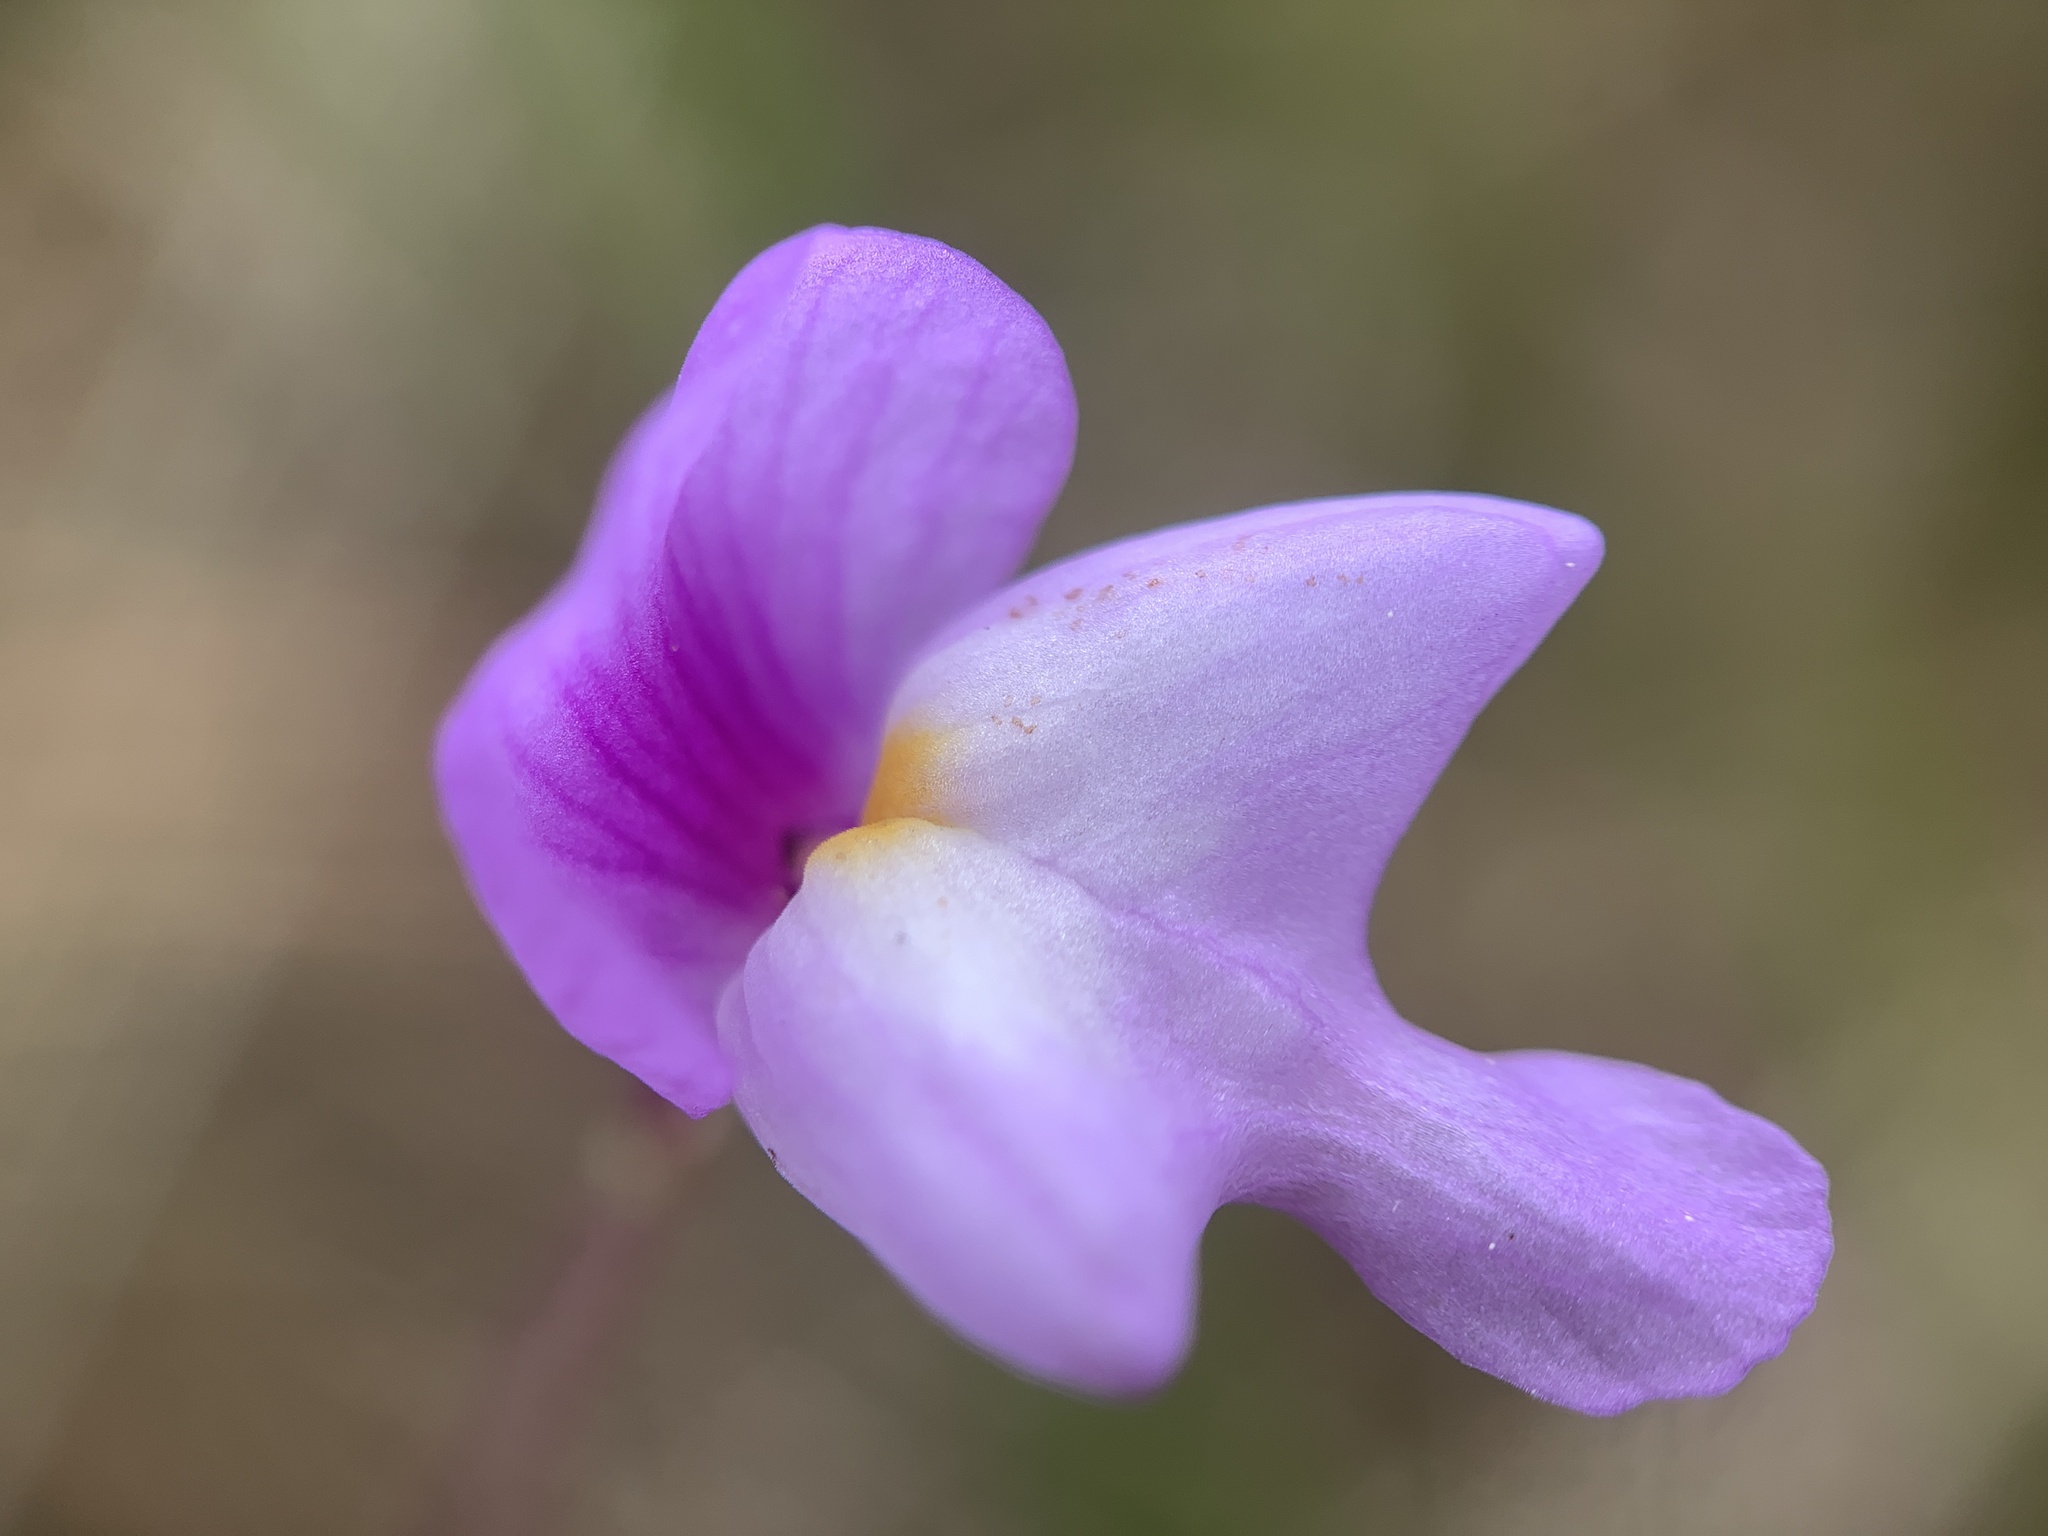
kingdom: Plantae
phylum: Tracheophyta
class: Magnoliopsida
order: Lamiales
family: Lentibulariaceae
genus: Utricularia
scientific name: Utricularia purpurea
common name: Eastern purple bladderwort
